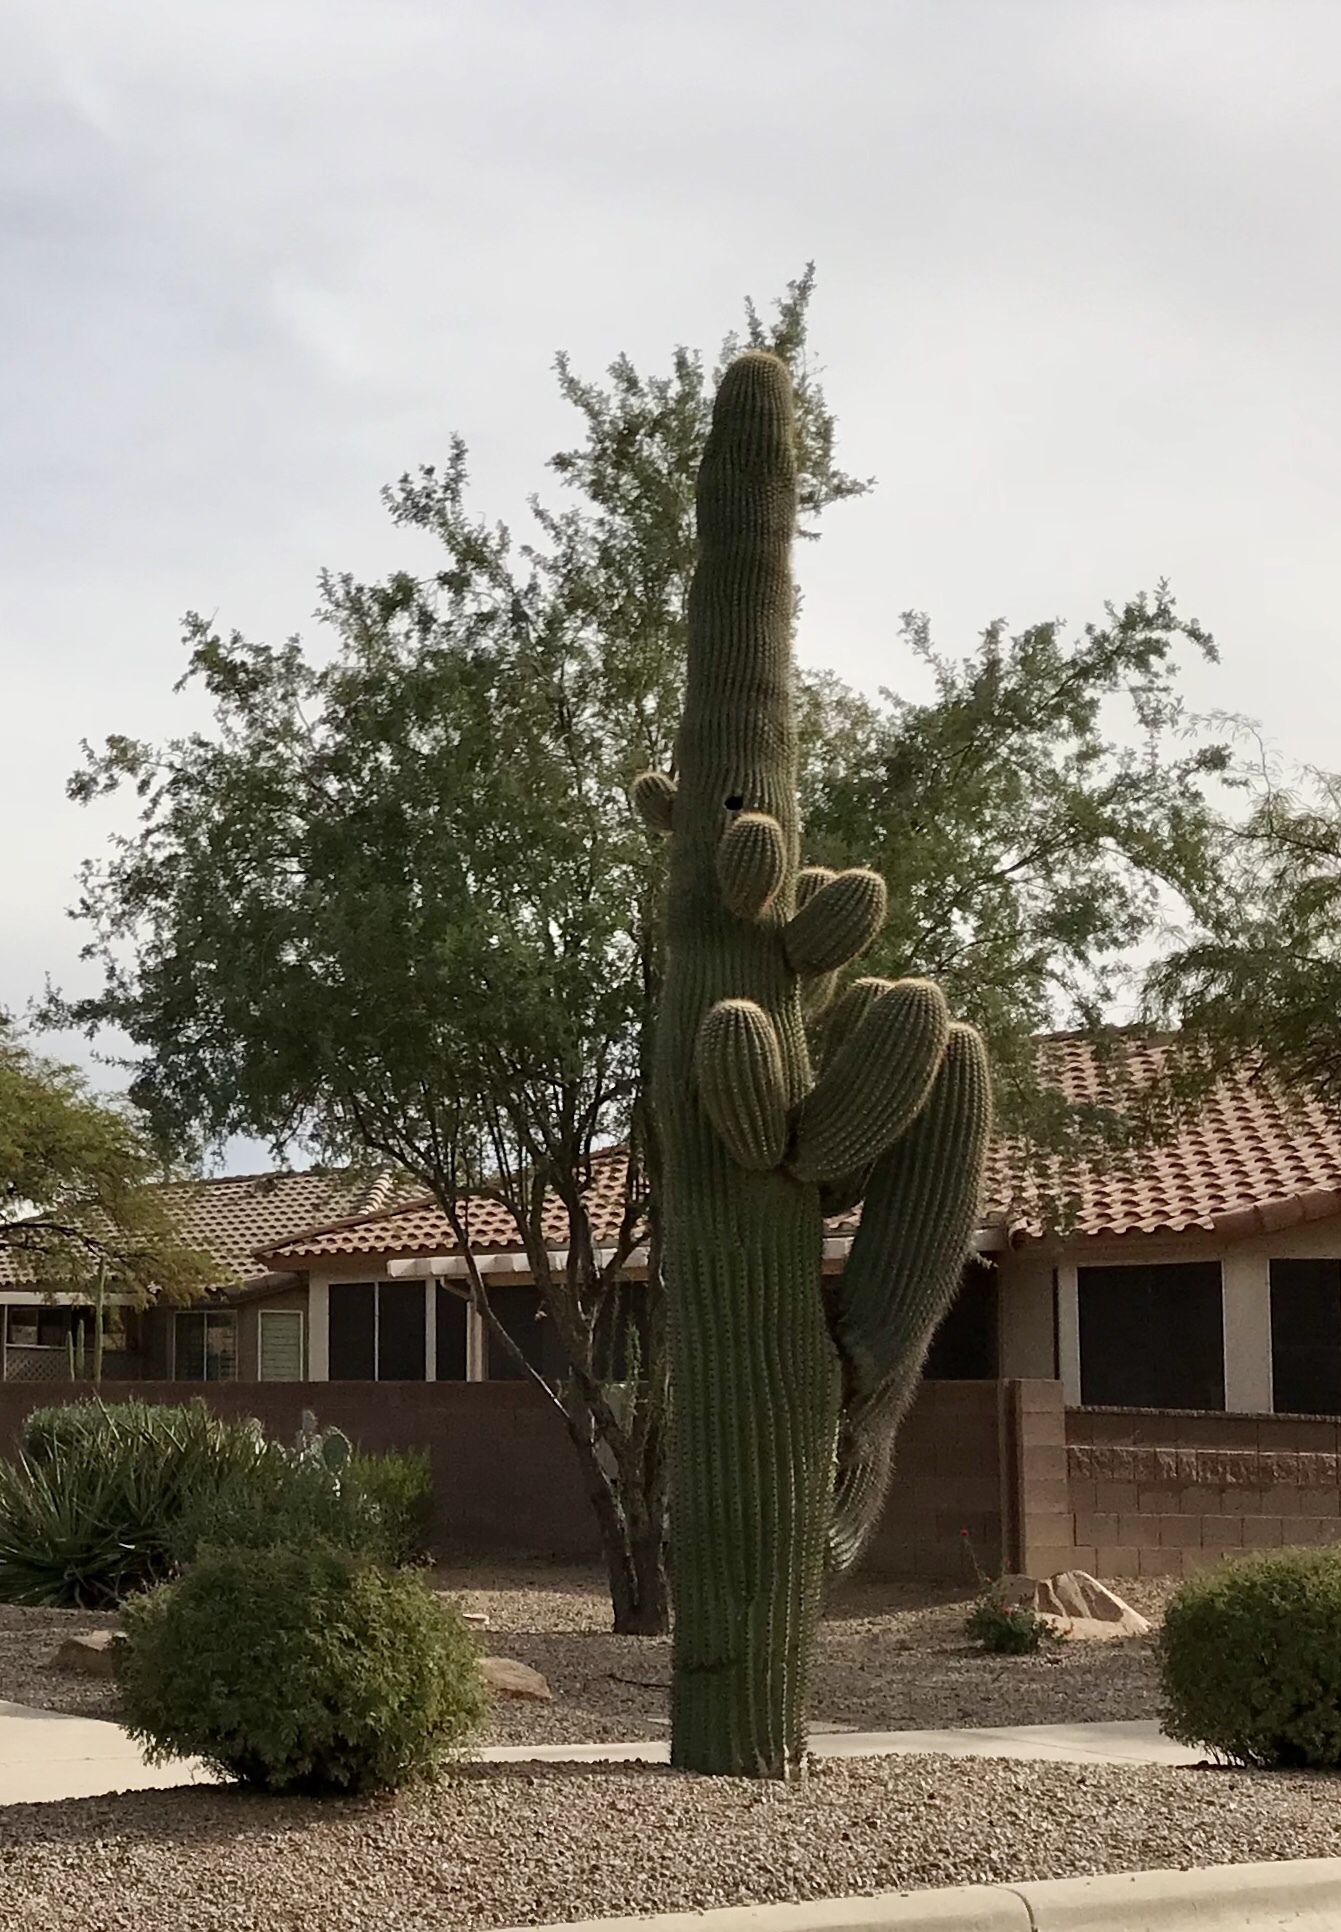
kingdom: Plantae
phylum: Tracheophyta
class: Magnoliopsida
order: Caryophyllales
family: Cactaceae
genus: Carnegiea
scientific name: Carnegiea gigantea
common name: Saguaro
